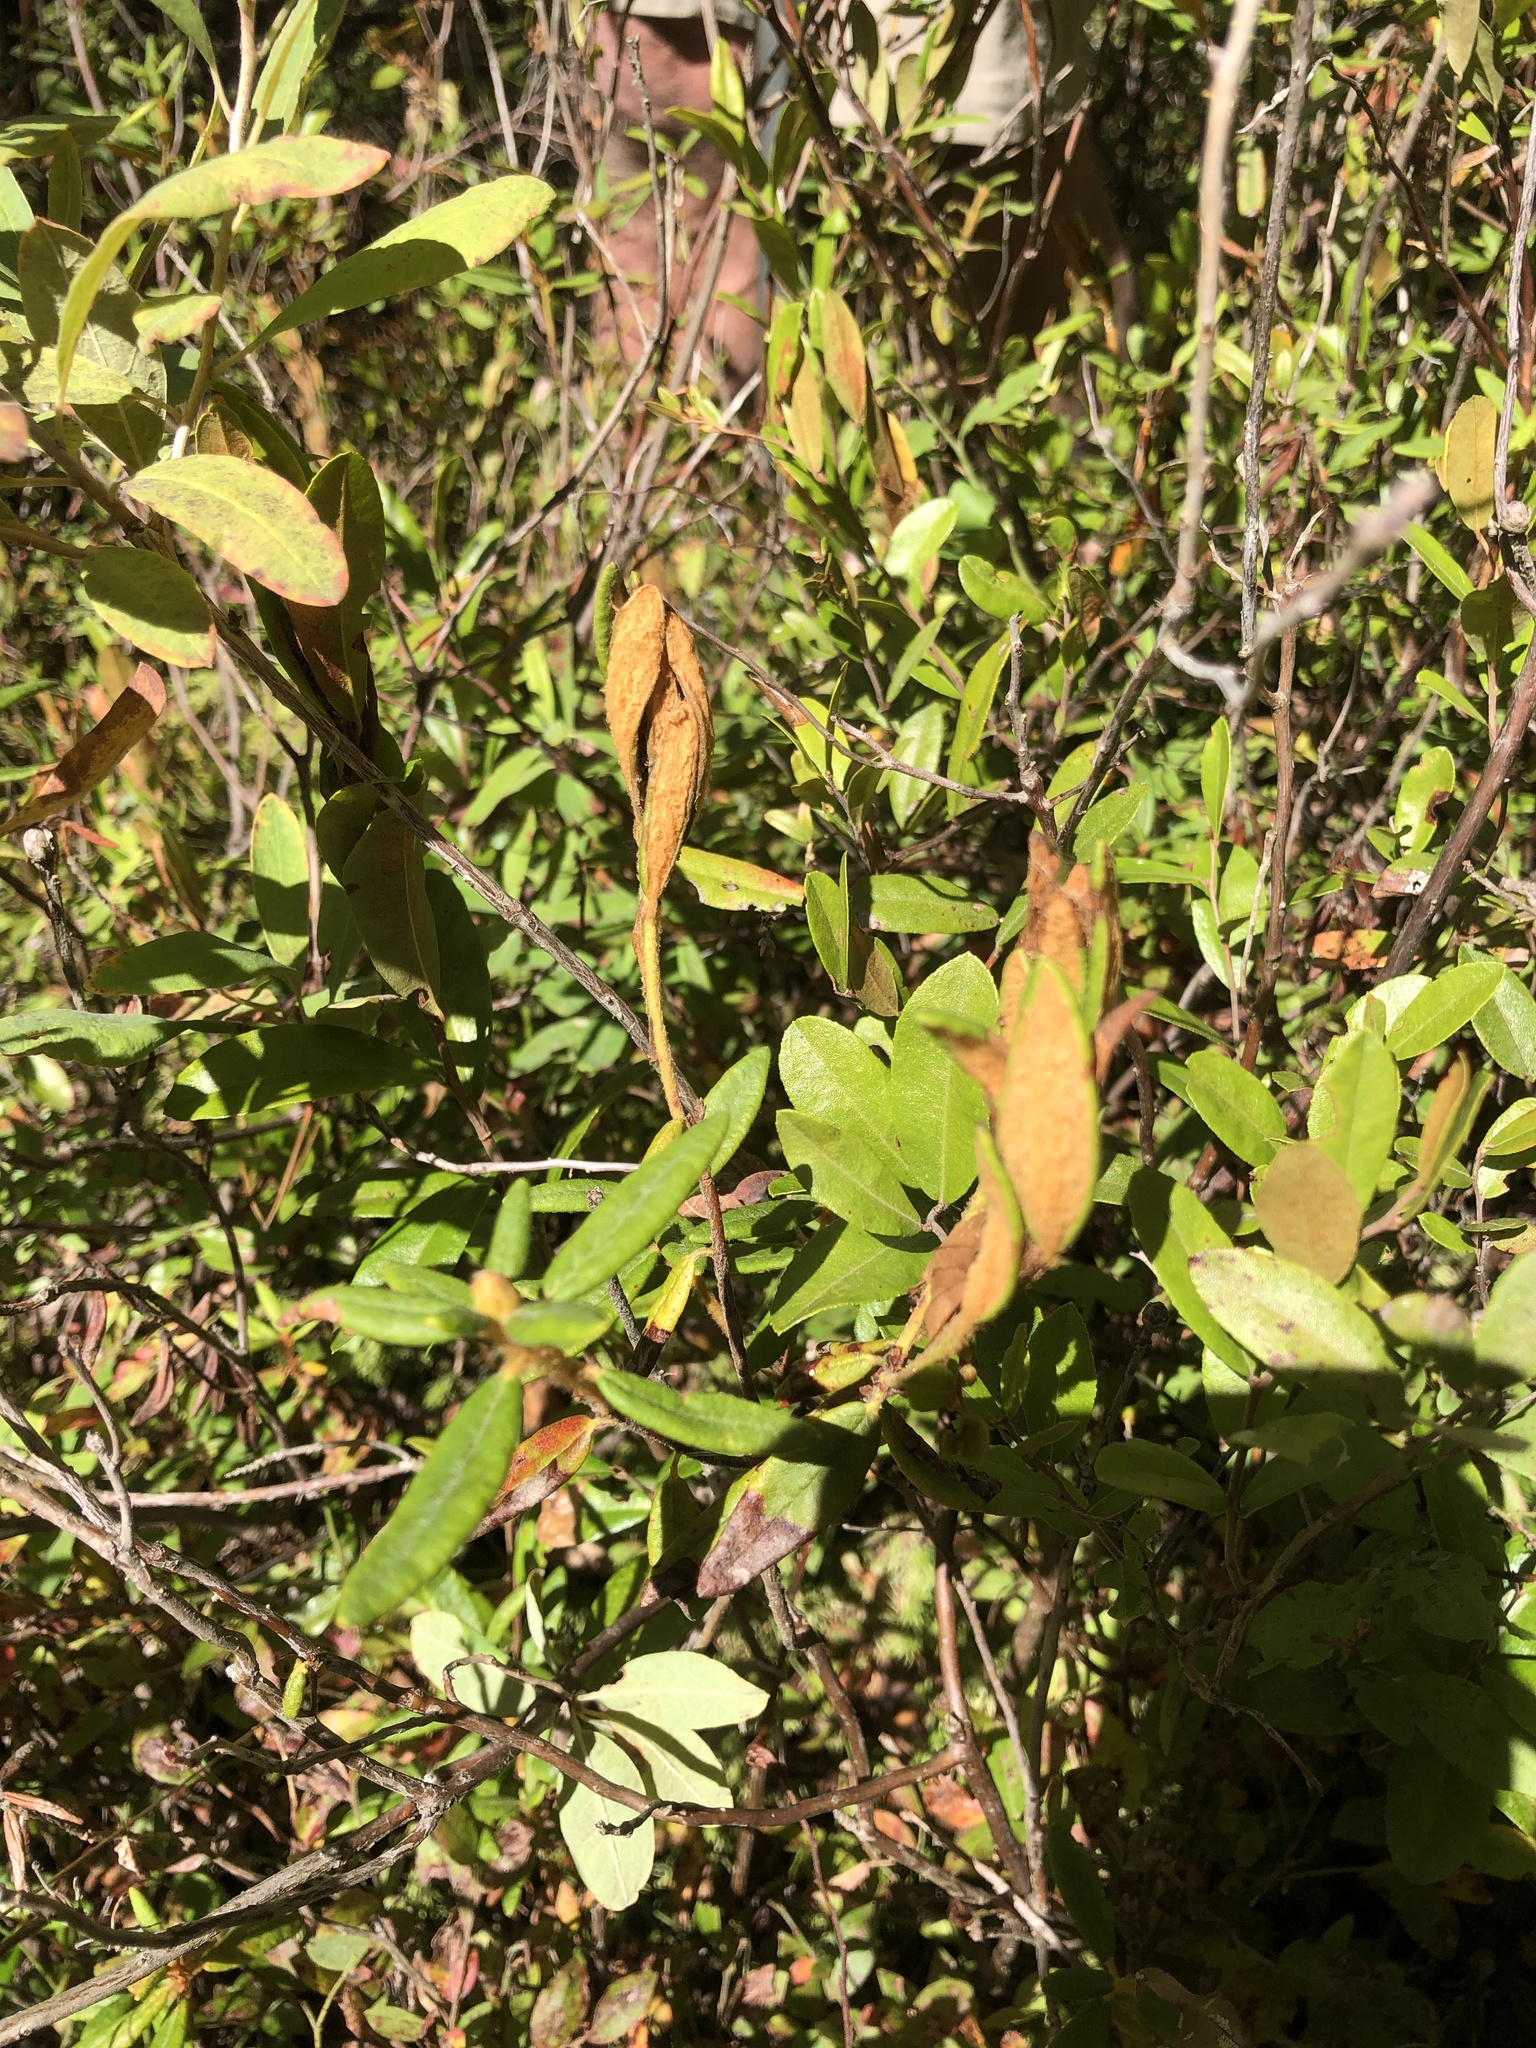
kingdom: Plantae
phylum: Tracheophyta
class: Magnoliopsida
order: Ericales
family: Ericaceae
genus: Rhododendron
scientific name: Rhododendron groenlandicum
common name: Bog labrador tea
